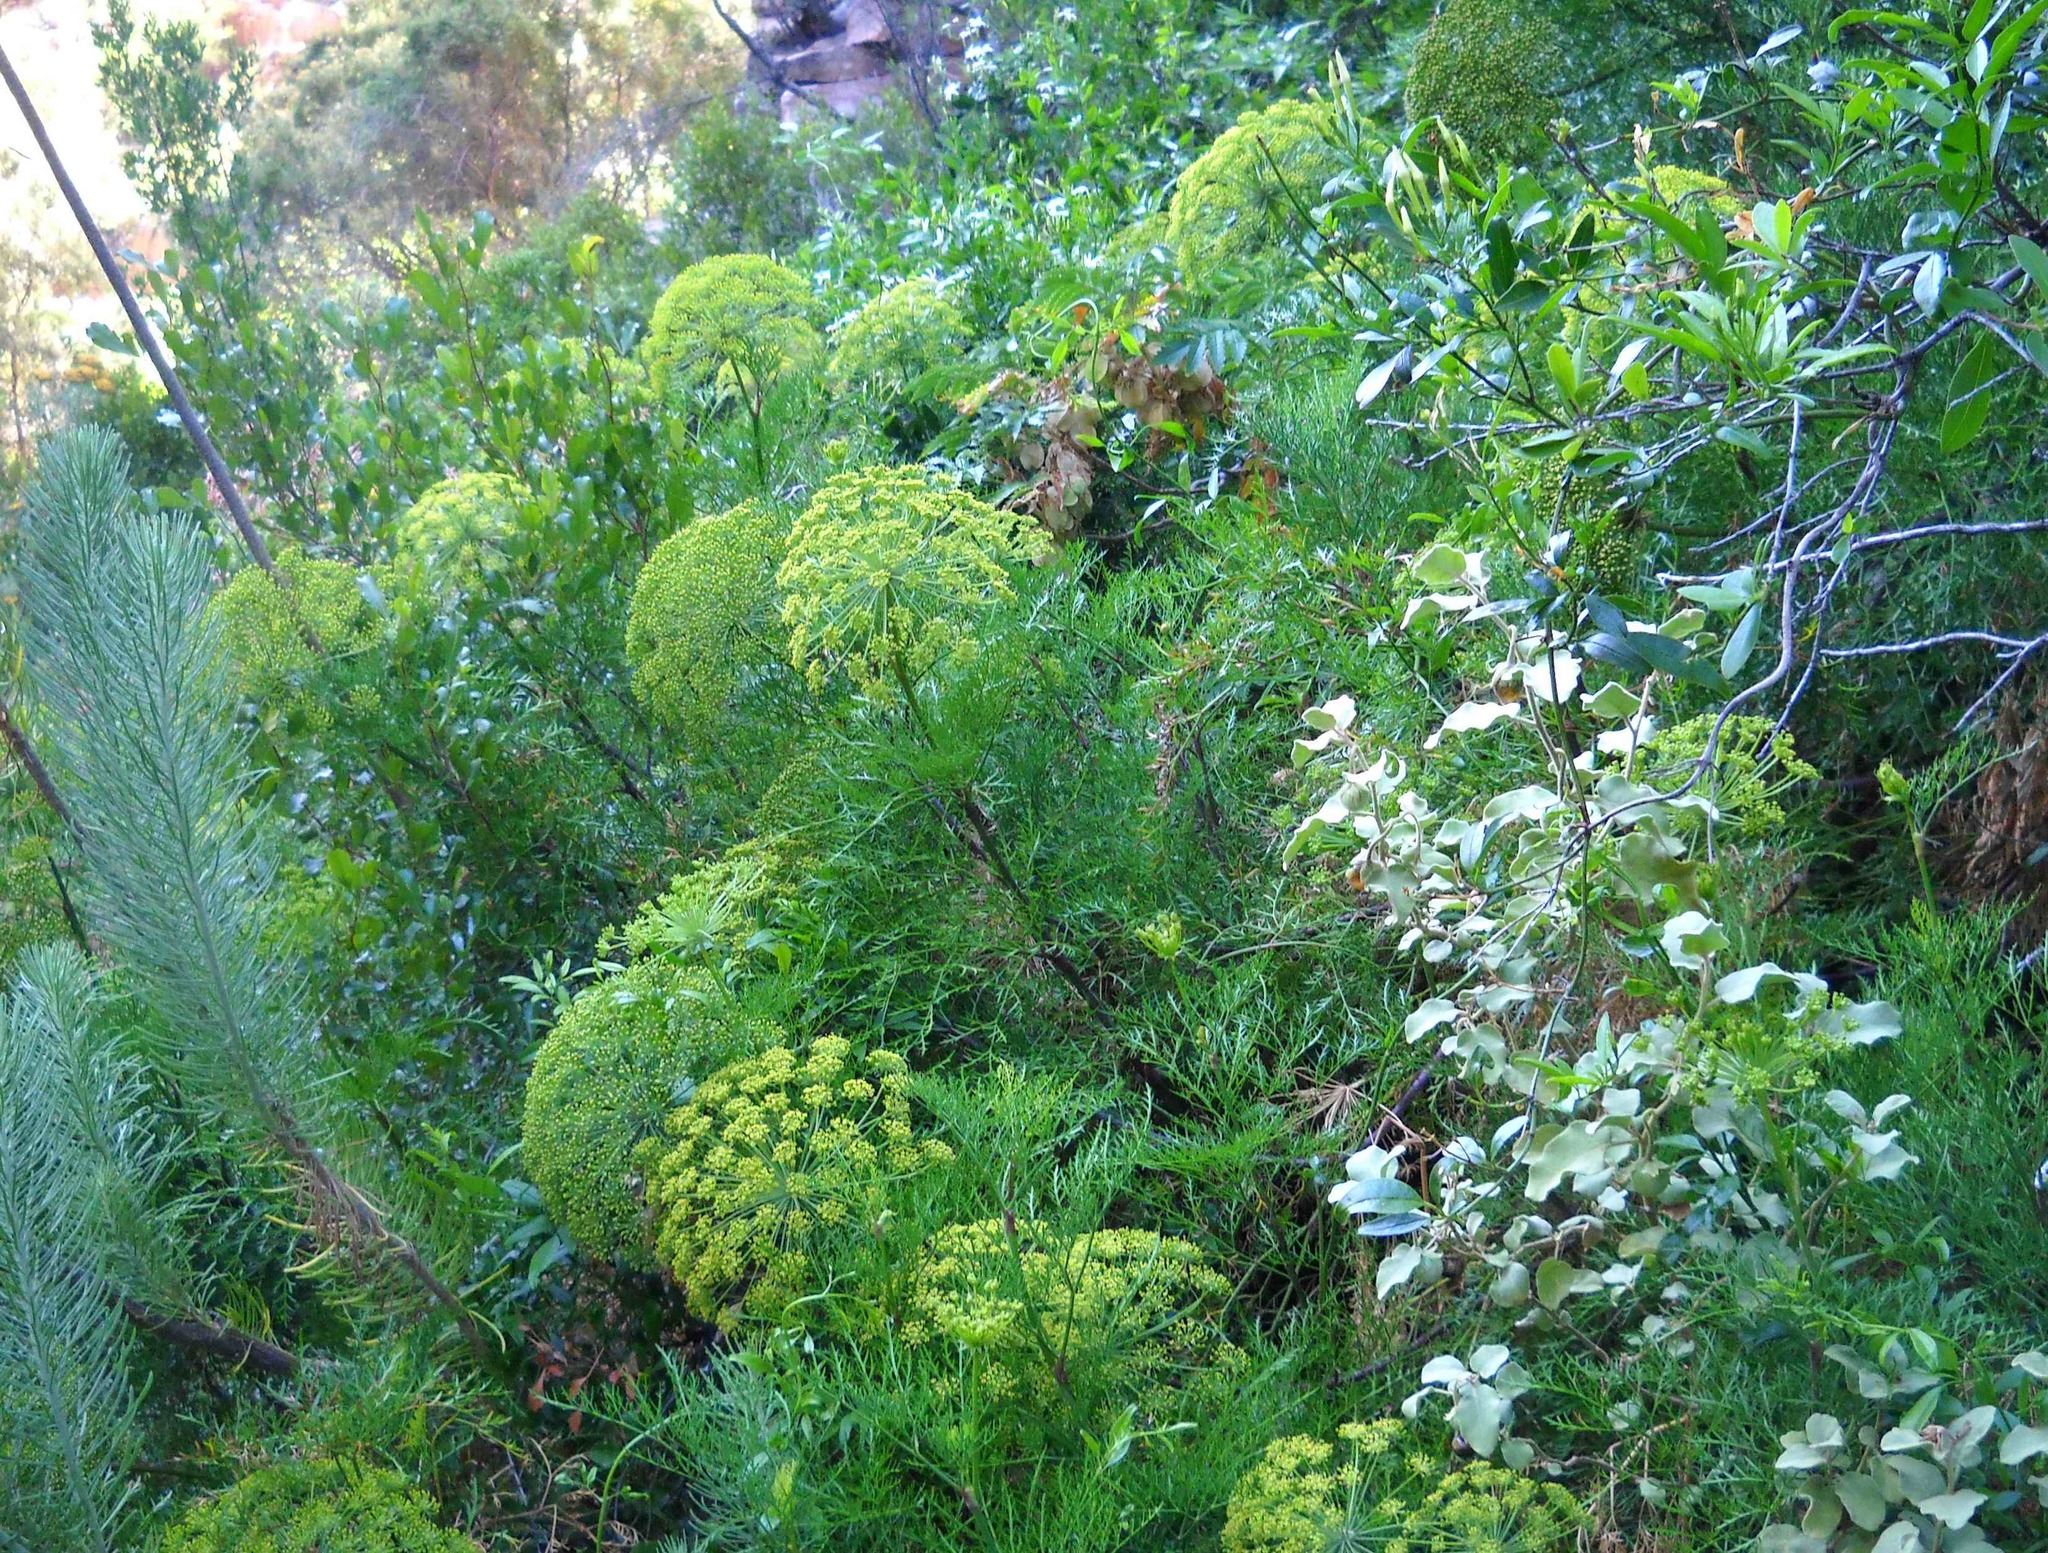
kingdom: Plantae
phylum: Tracheophyta
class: Magnoliopsida
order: Apiales
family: Apiaceae
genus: Notobubon
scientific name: Notobubon tenuifolium
